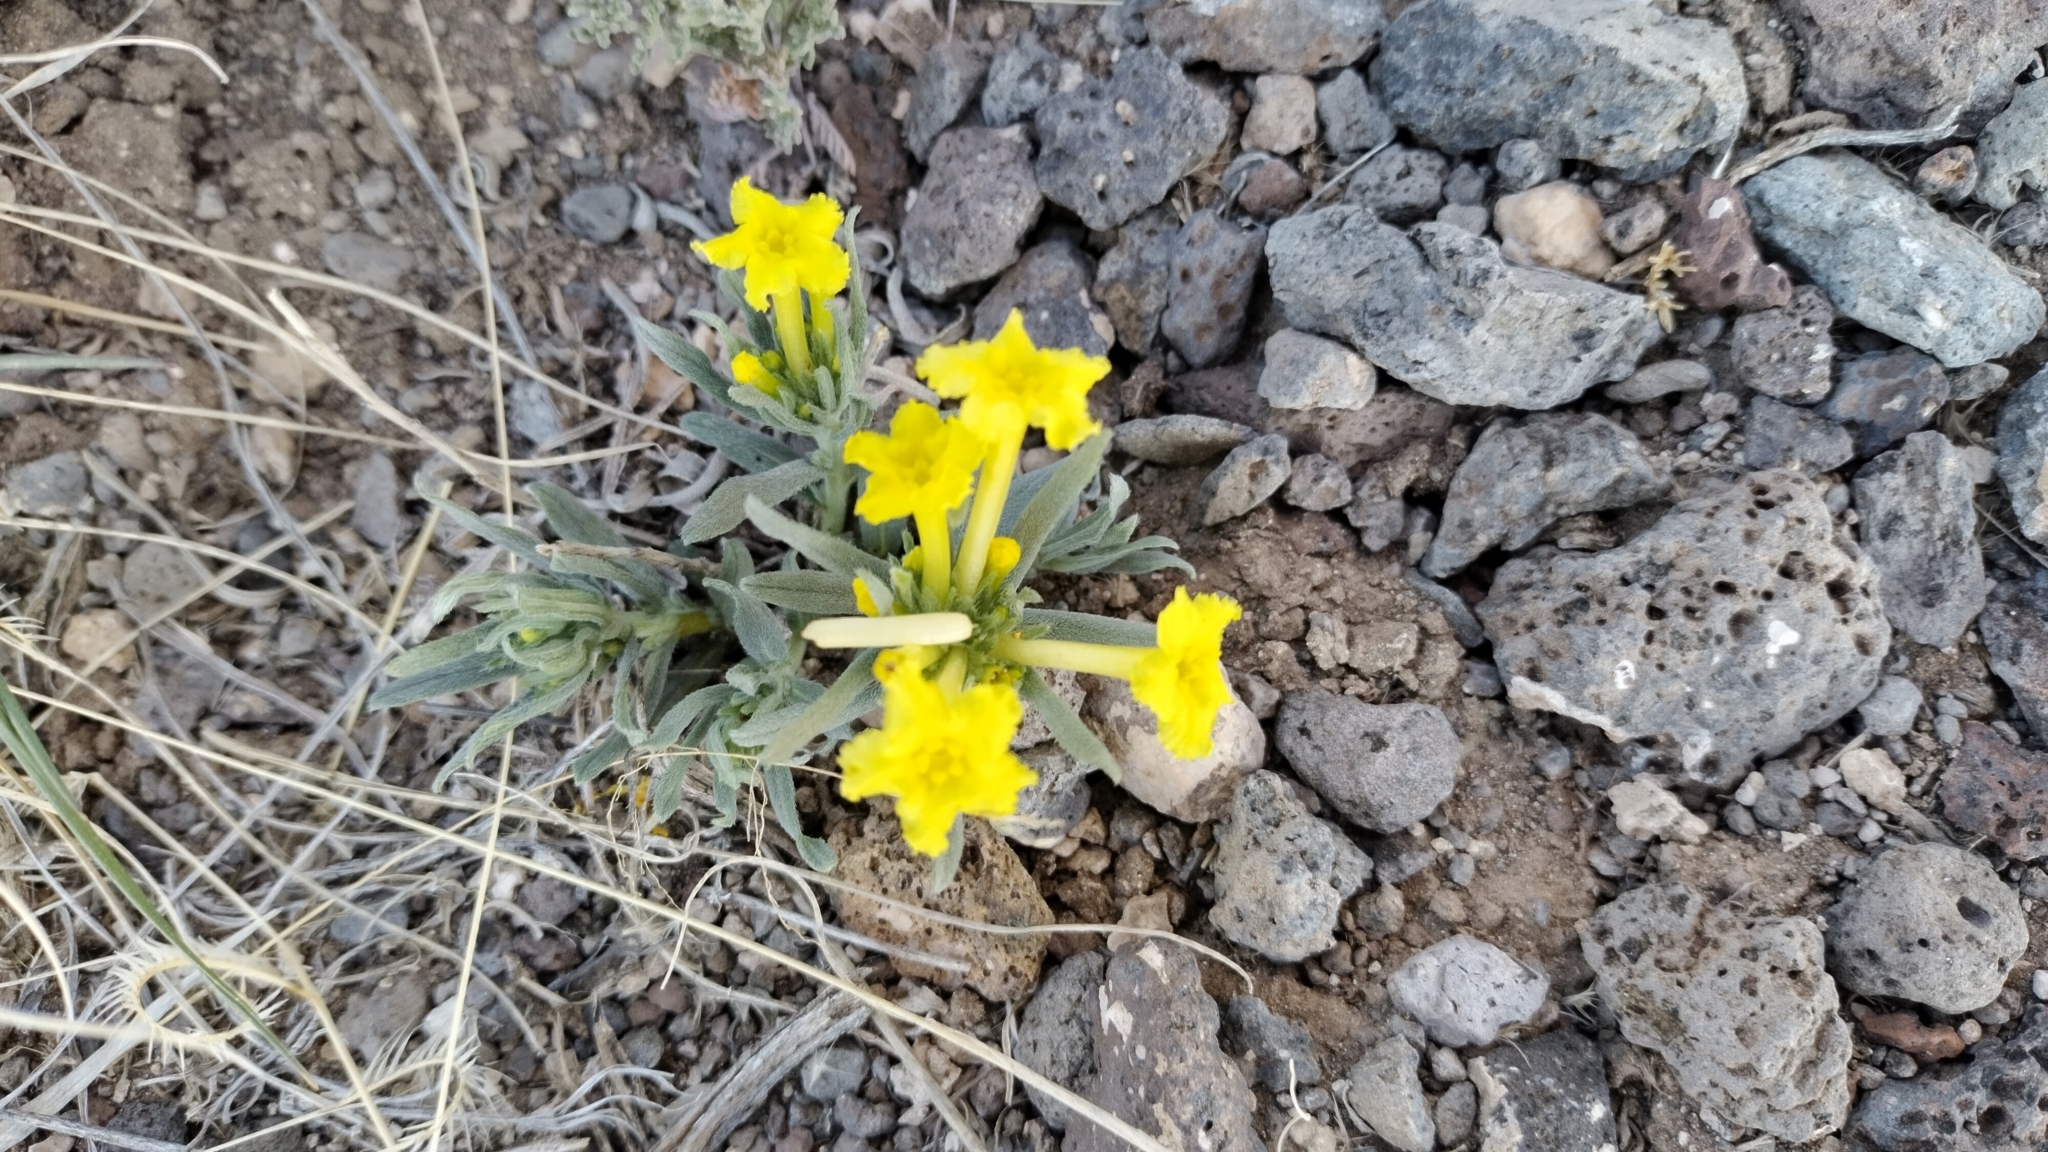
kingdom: Plantae
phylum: Tracheophyta
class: Magnoliopsida
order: Boraginales
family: Boraginaceae
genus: Lithospermum
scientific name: Lithospermum incisum
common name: Fringed gromwell
